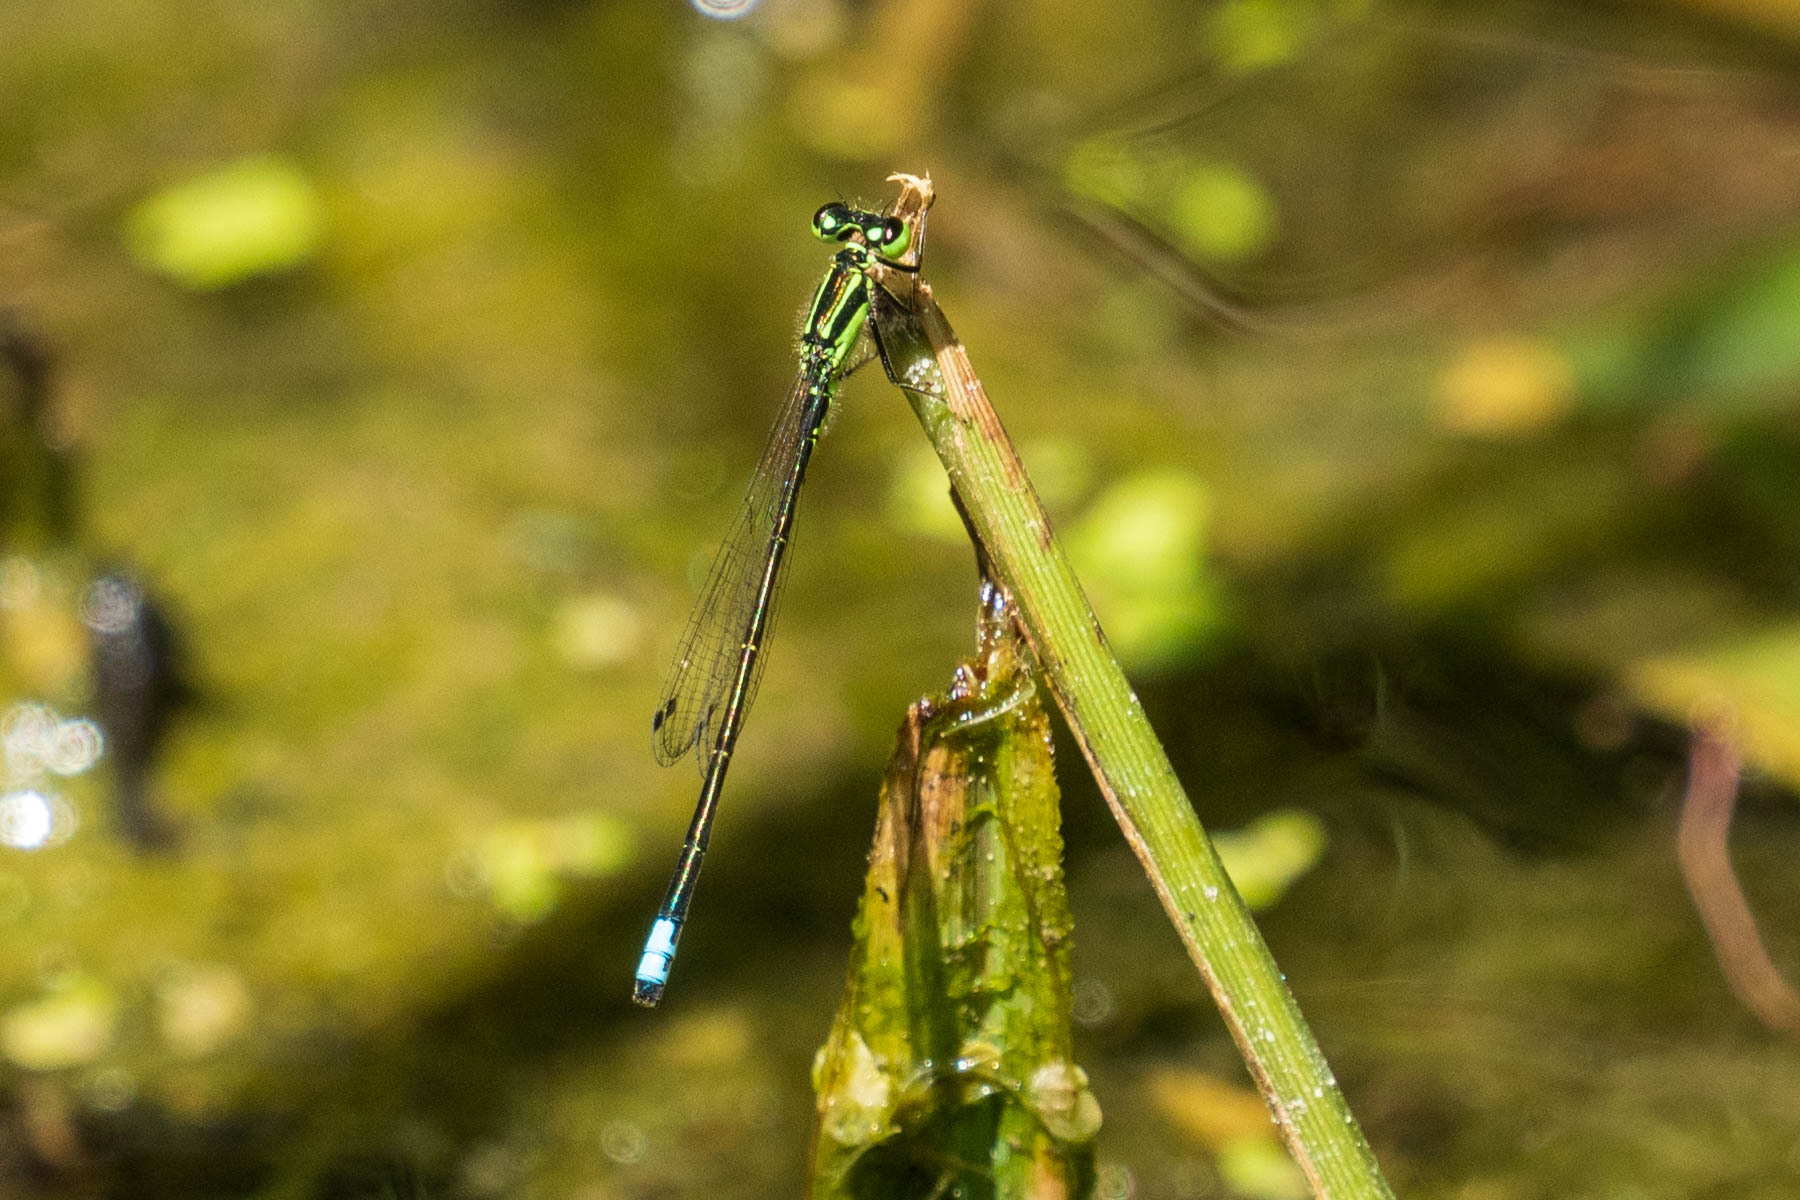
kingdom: Animalia
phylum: Arthropoda
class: Insecta
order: Odonata
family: Coenagrionidae
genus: Ischnura
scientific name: Ischnura verticalis
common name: Eastern forktail
